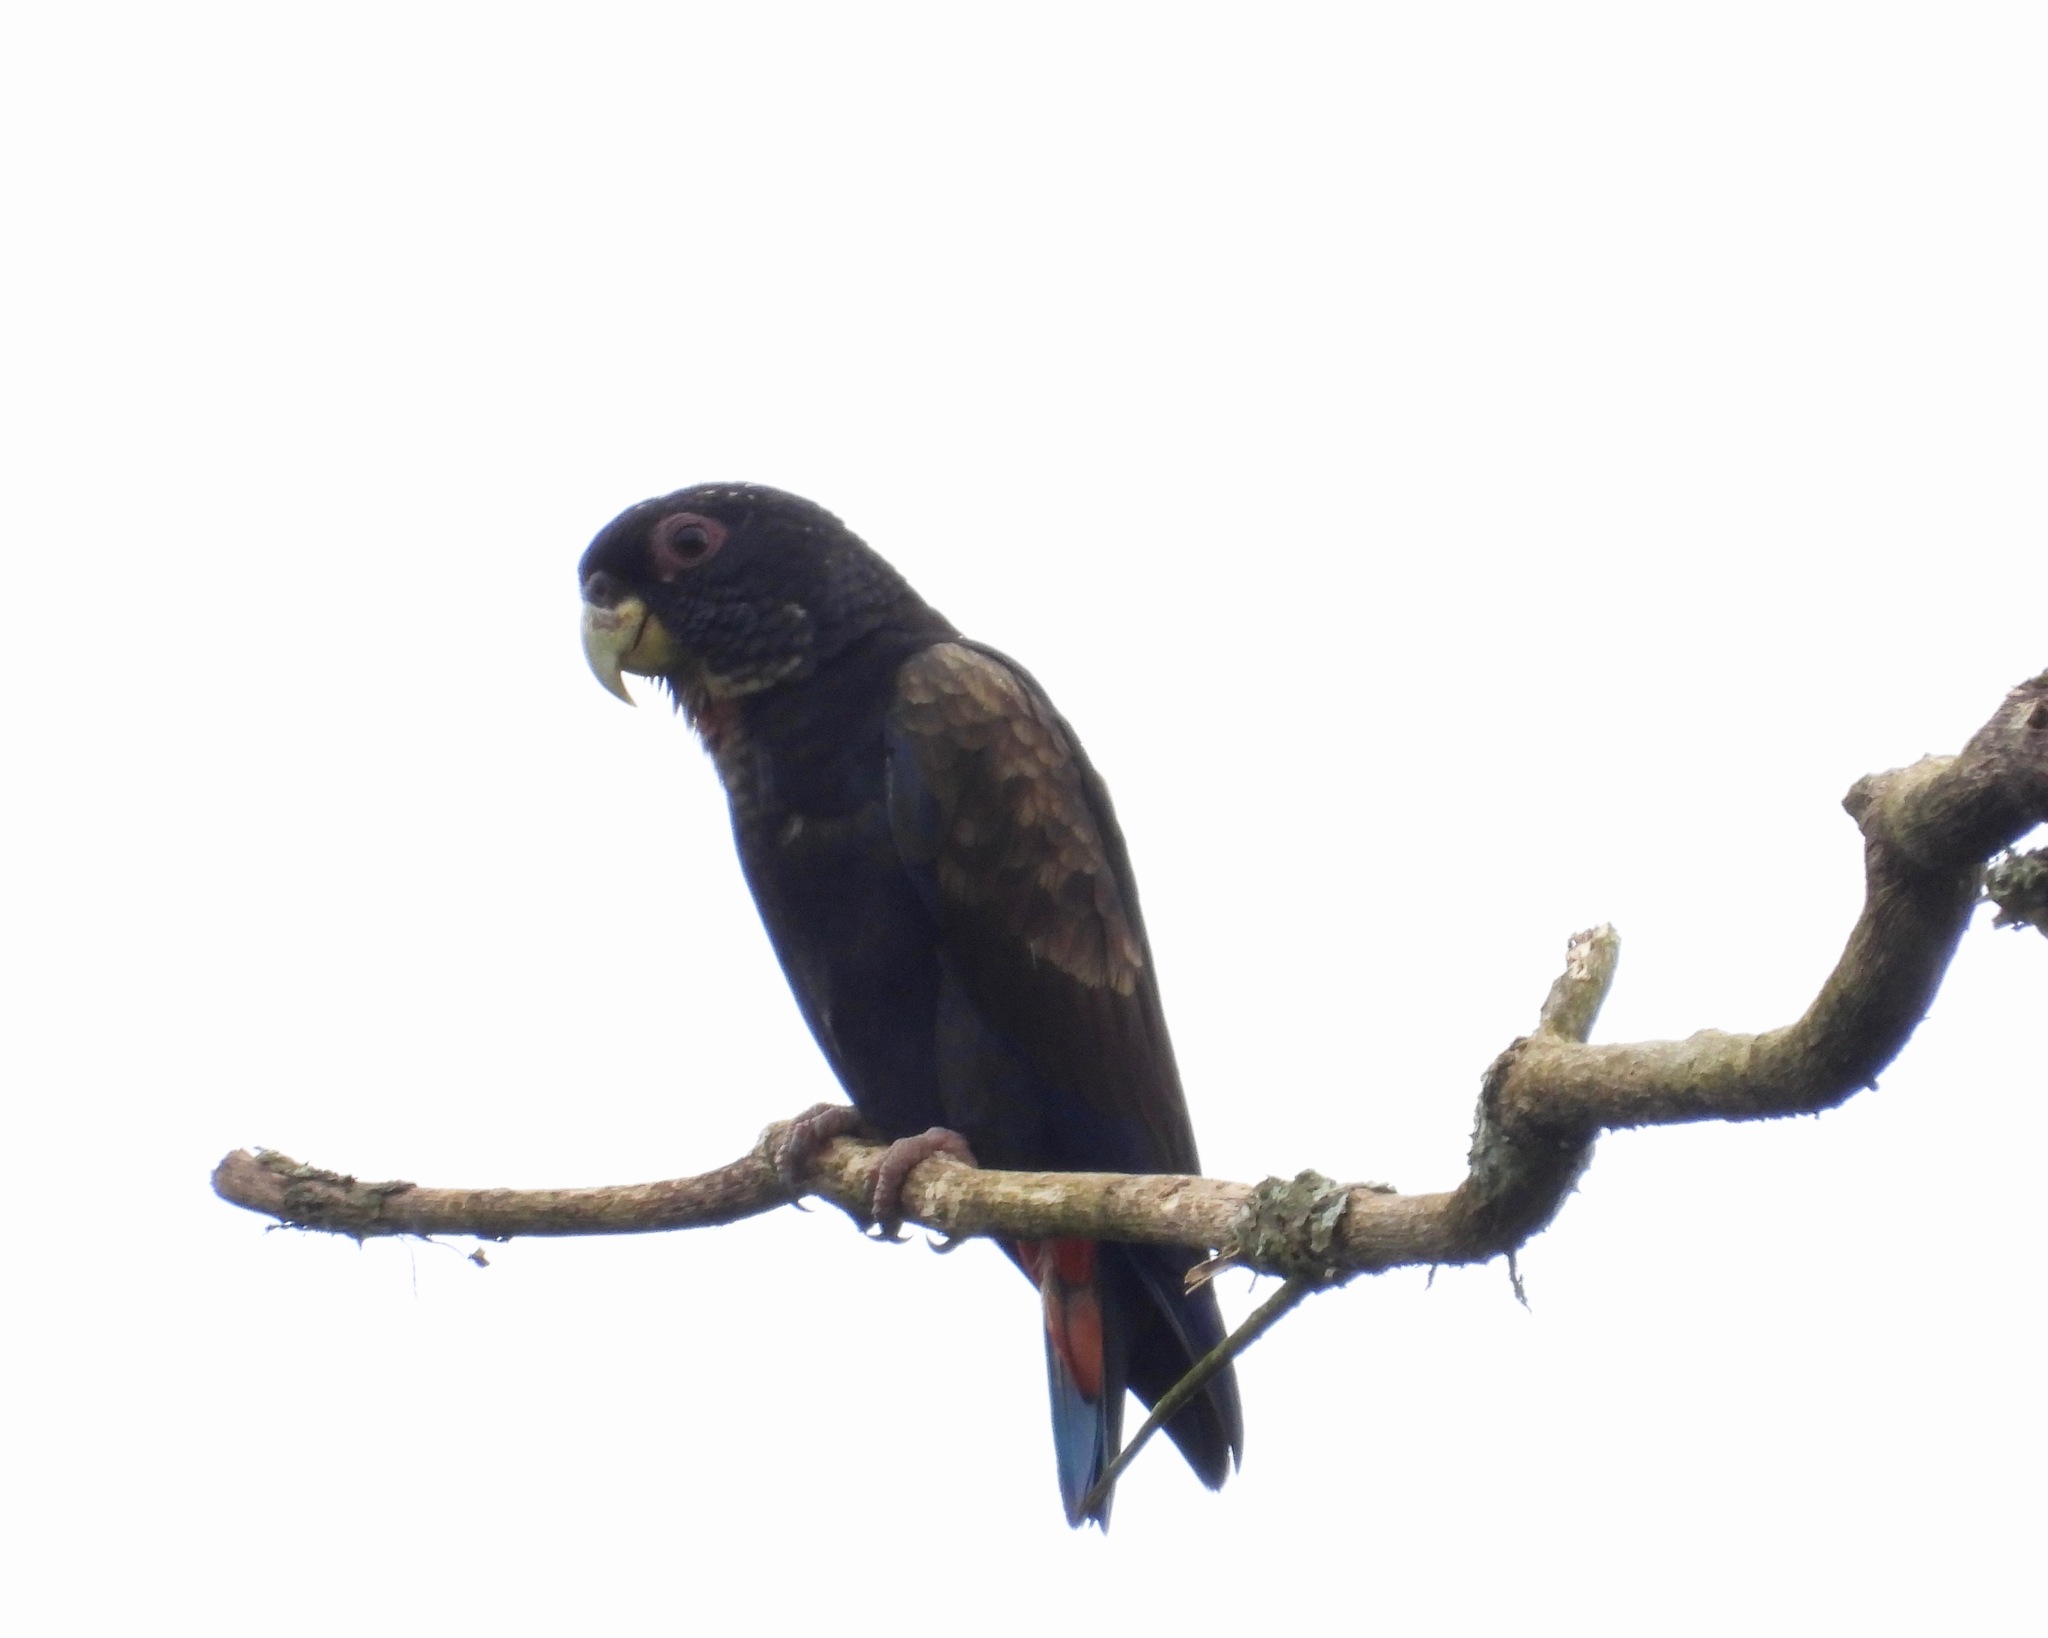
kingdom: Animalia
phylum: Chordata
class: Aves
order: Psittaciformes
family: Psittacidae
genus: Pionus
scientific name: Pionus chalcopterus
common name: Bronze-winged parrot
